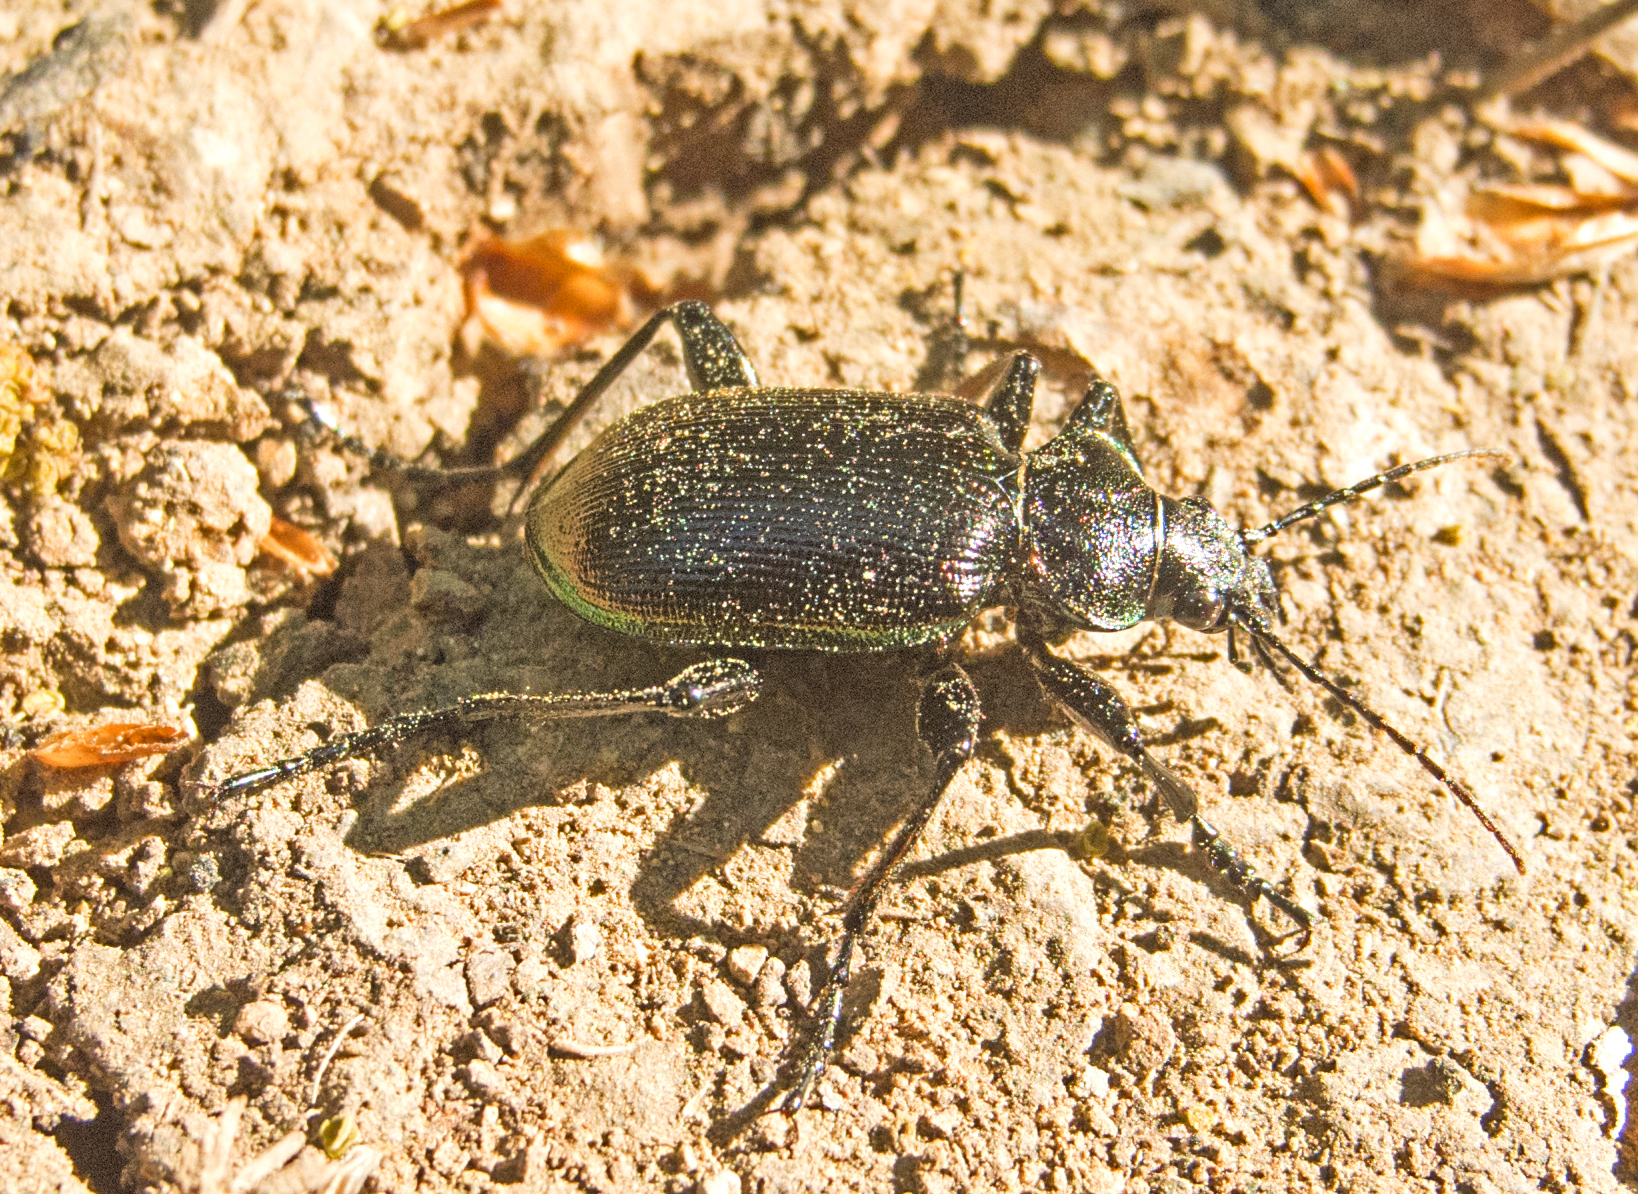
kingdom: Animalia
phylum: Arthropoda
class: Insecta
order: Coleoptera
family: Carabidae
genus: Calosoma
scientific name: Calosoma inquisitor
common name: Caterpillar-hunter
